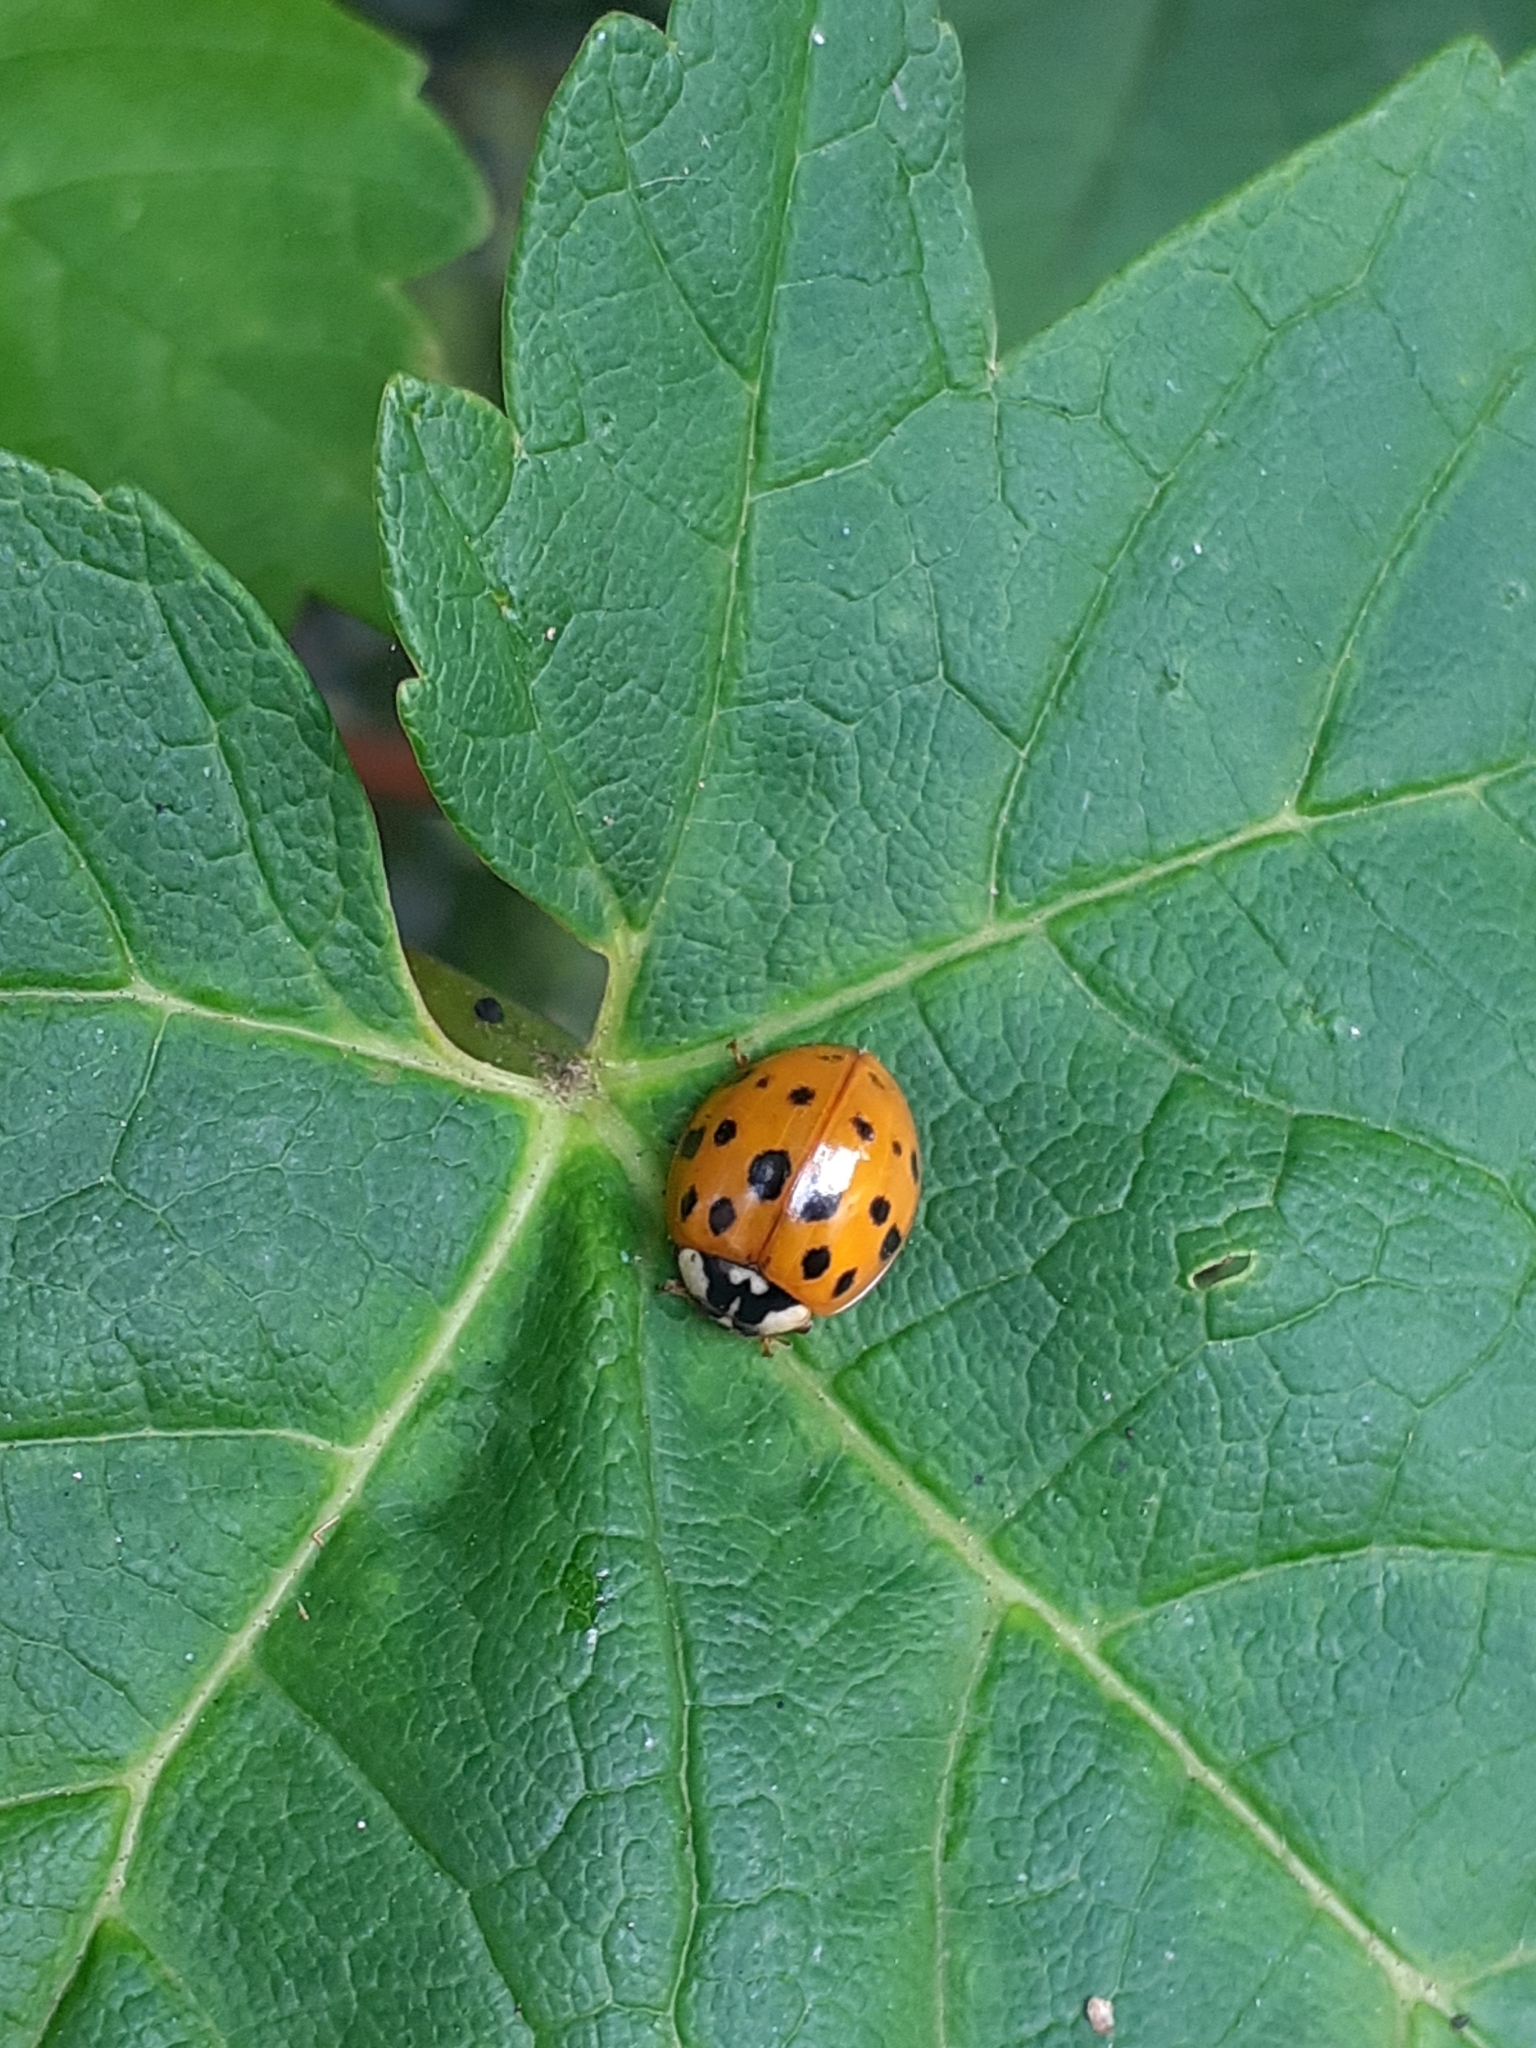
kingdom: Animalia
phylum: Arthropoda
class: Insecta
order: Coleoptera
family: Coccinellidae
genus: Harmonia
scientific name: Harmonia axyridis
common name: Harlequin ladybird
